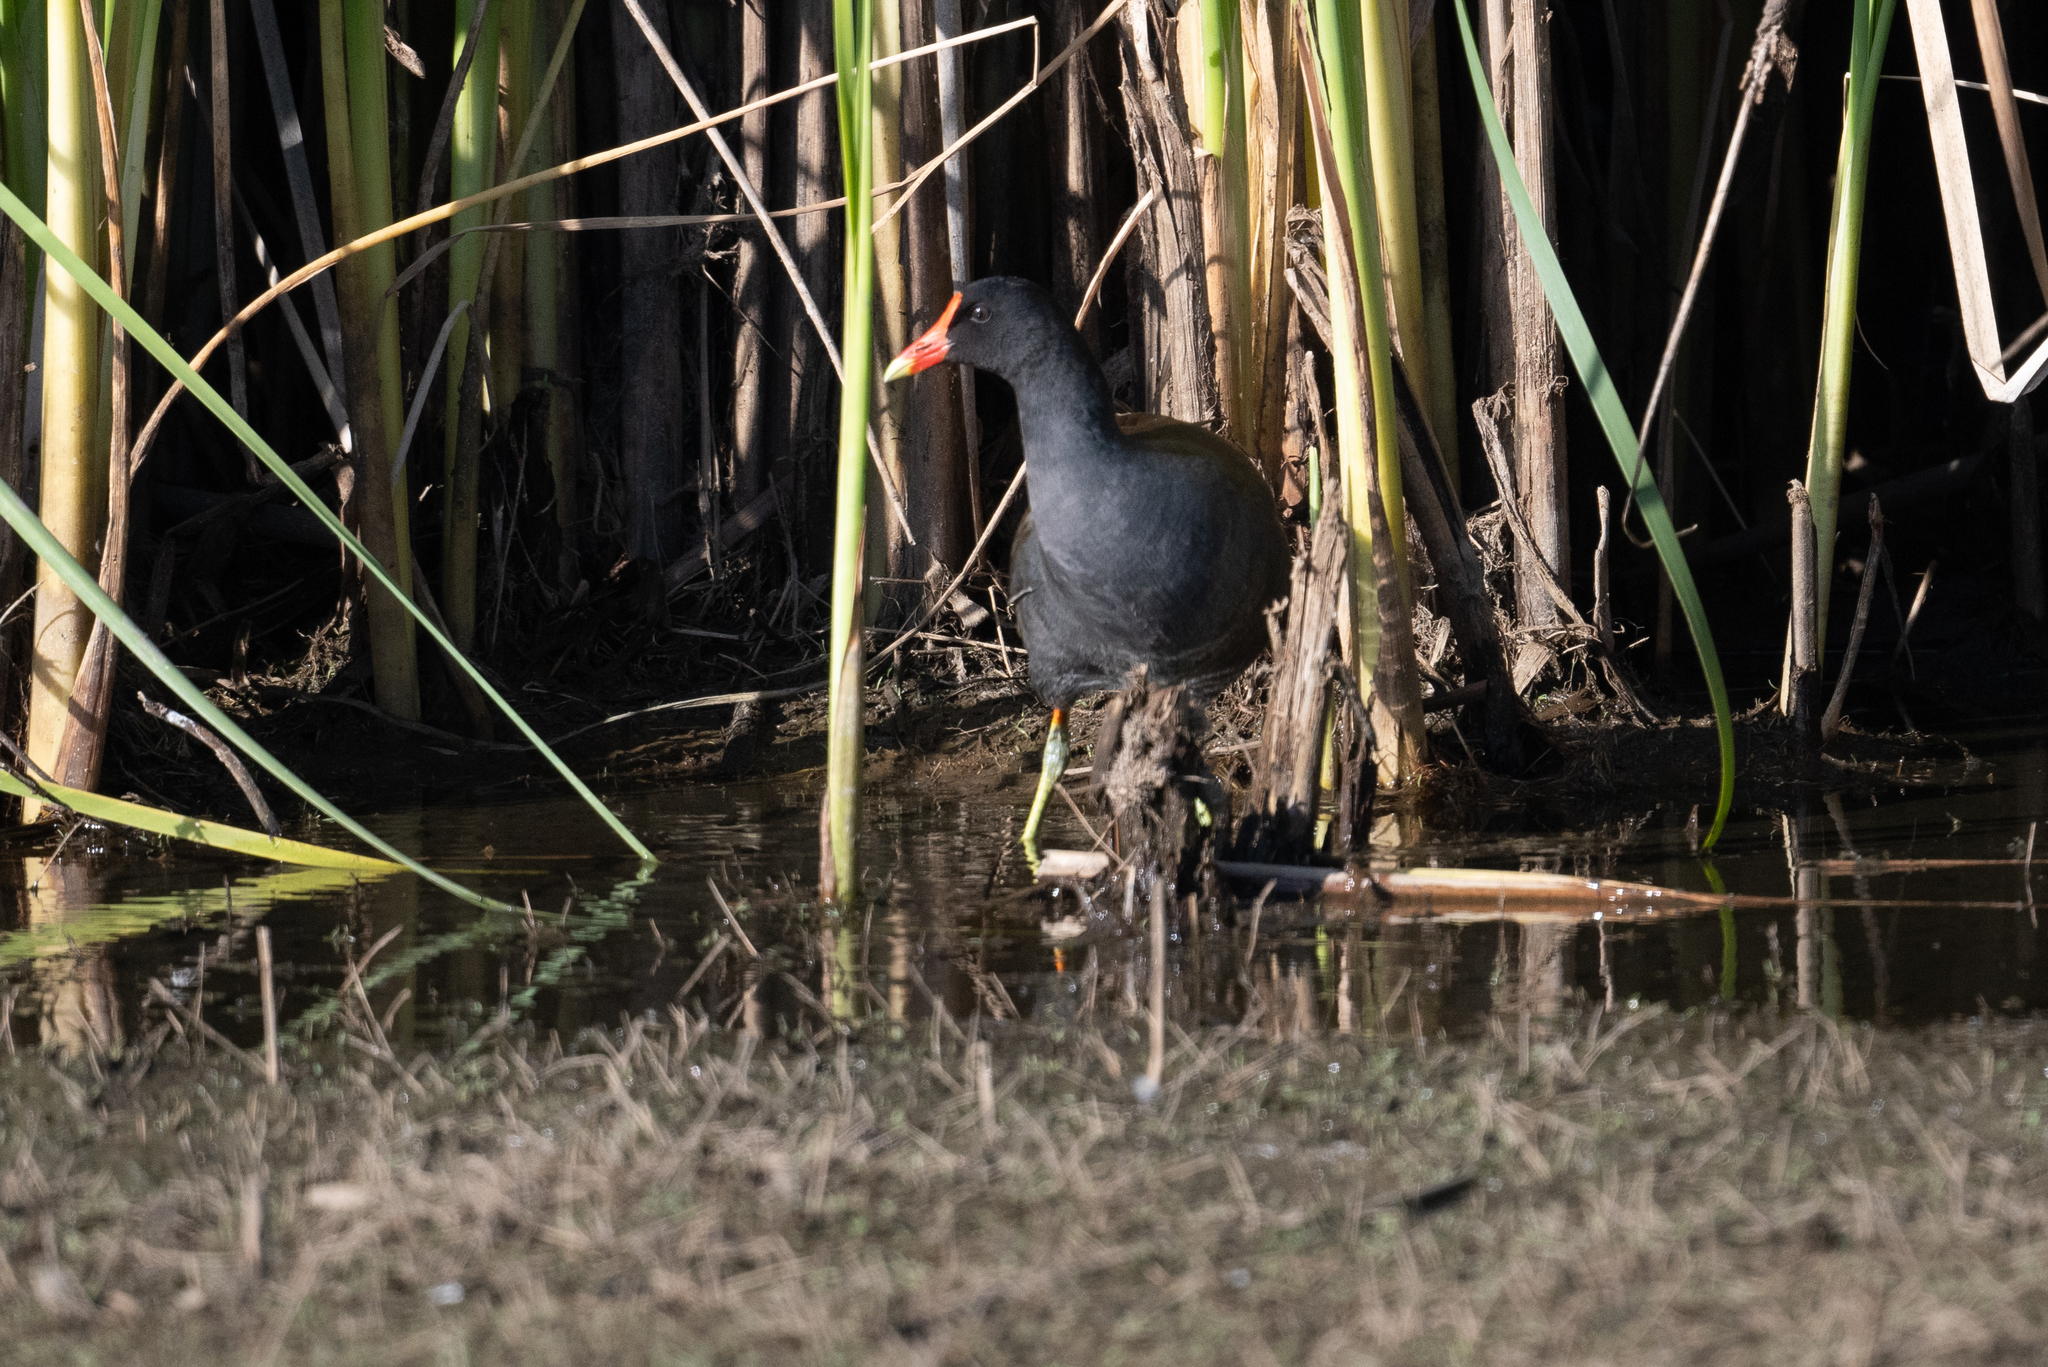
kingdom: Animalia
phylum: Chordata
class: Aves
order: Gruiformes
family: Rallidae
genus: Gallinula
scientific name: Gallinula chloropus
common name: Common moorhen
